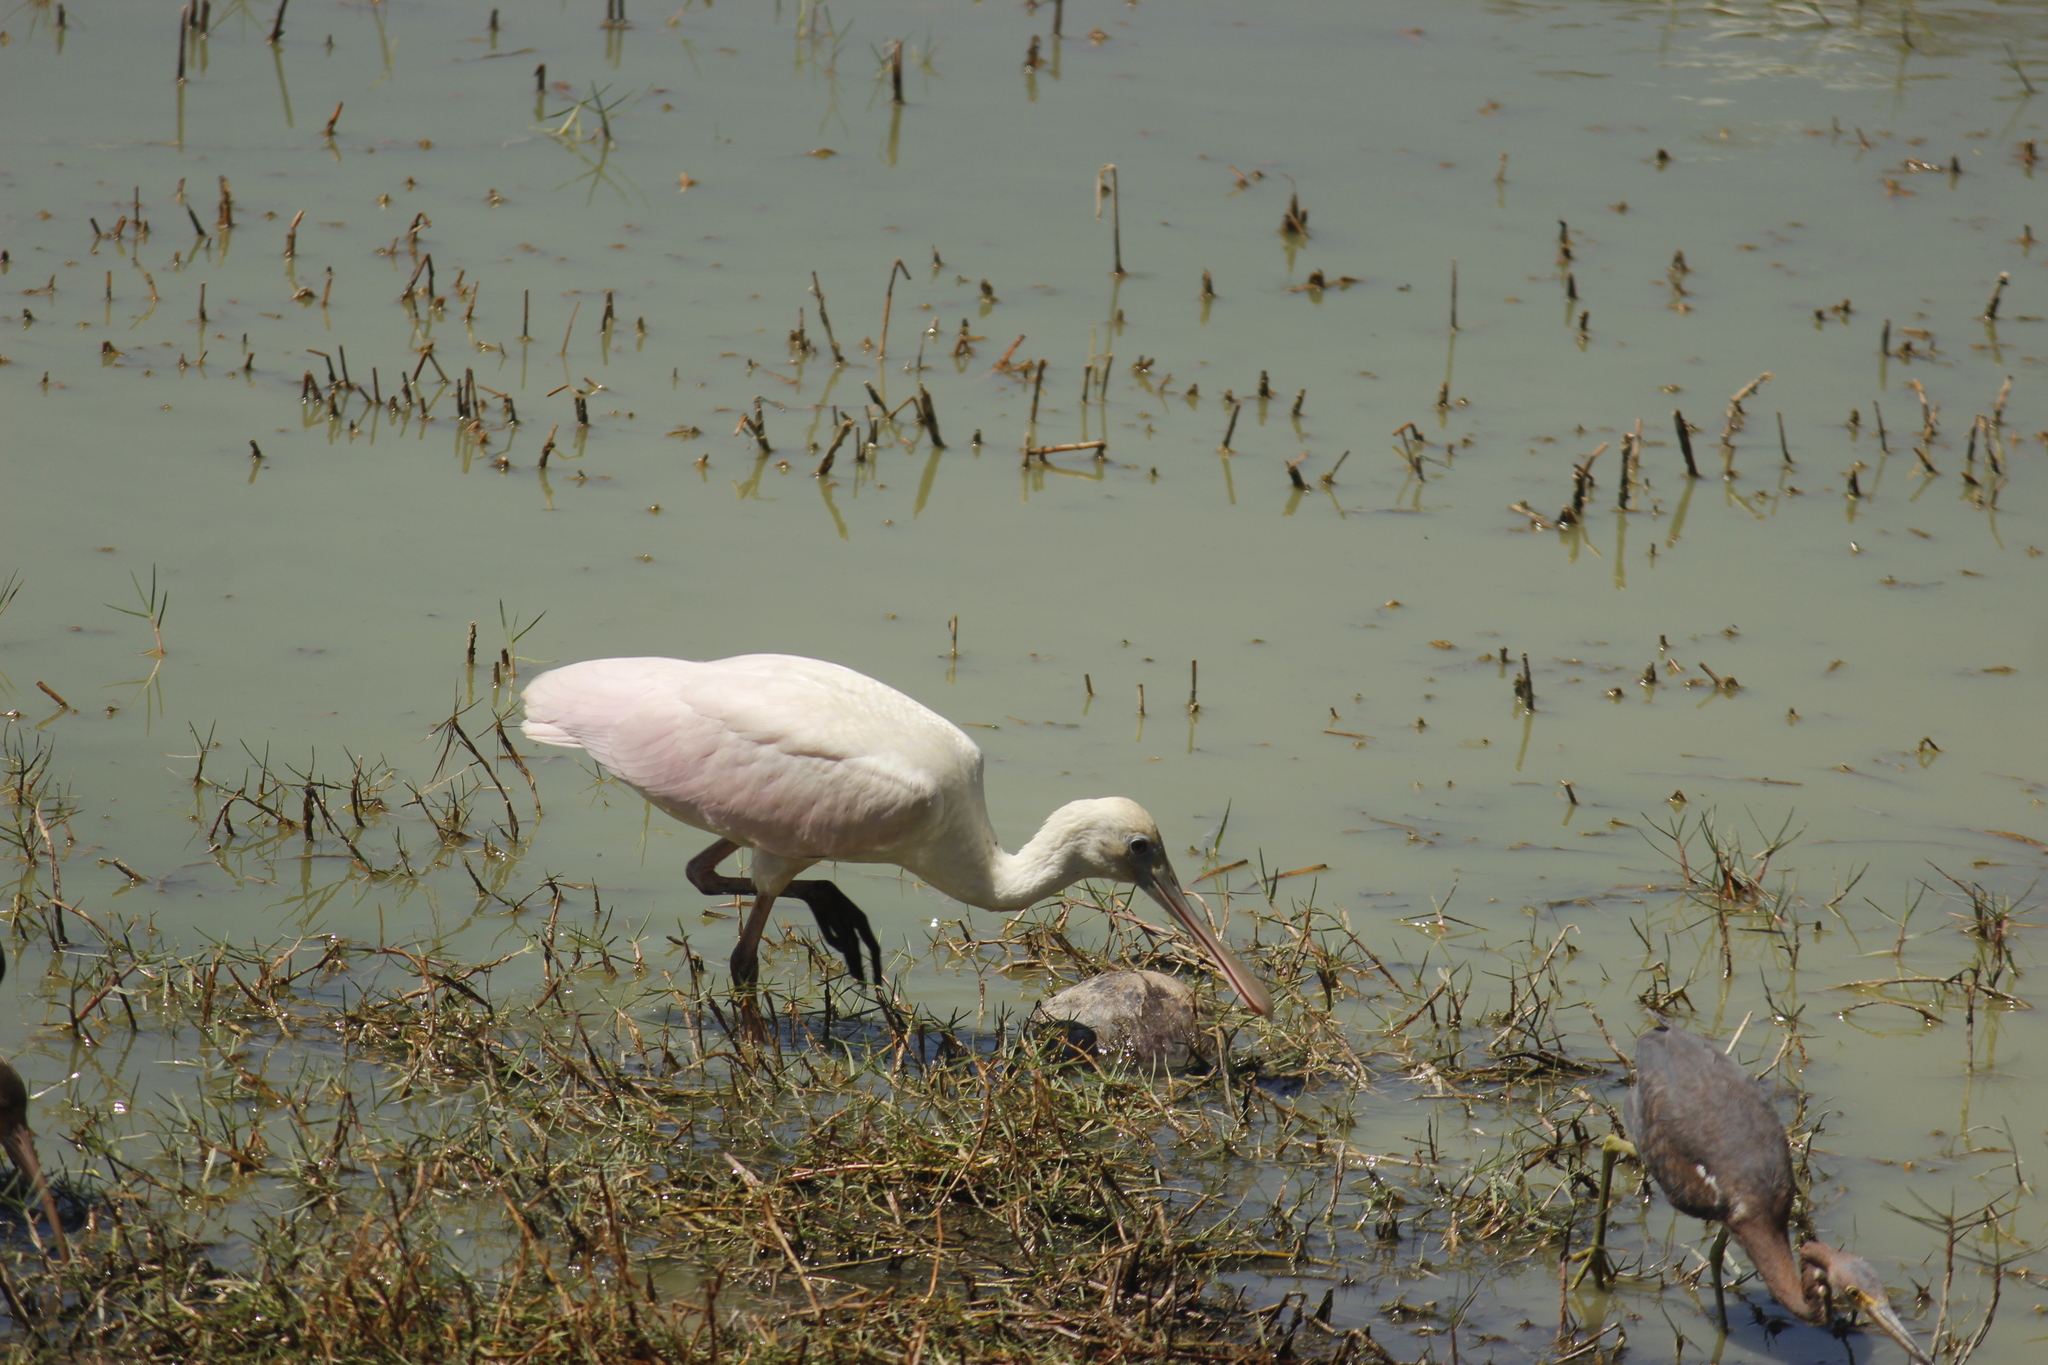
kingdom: Animalia
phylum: Chordata
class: Aves
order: Pelecaniformes
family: Threskiornithidae
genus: Platalea
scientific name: Platalea ajaja
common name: Roseate spoonbill
